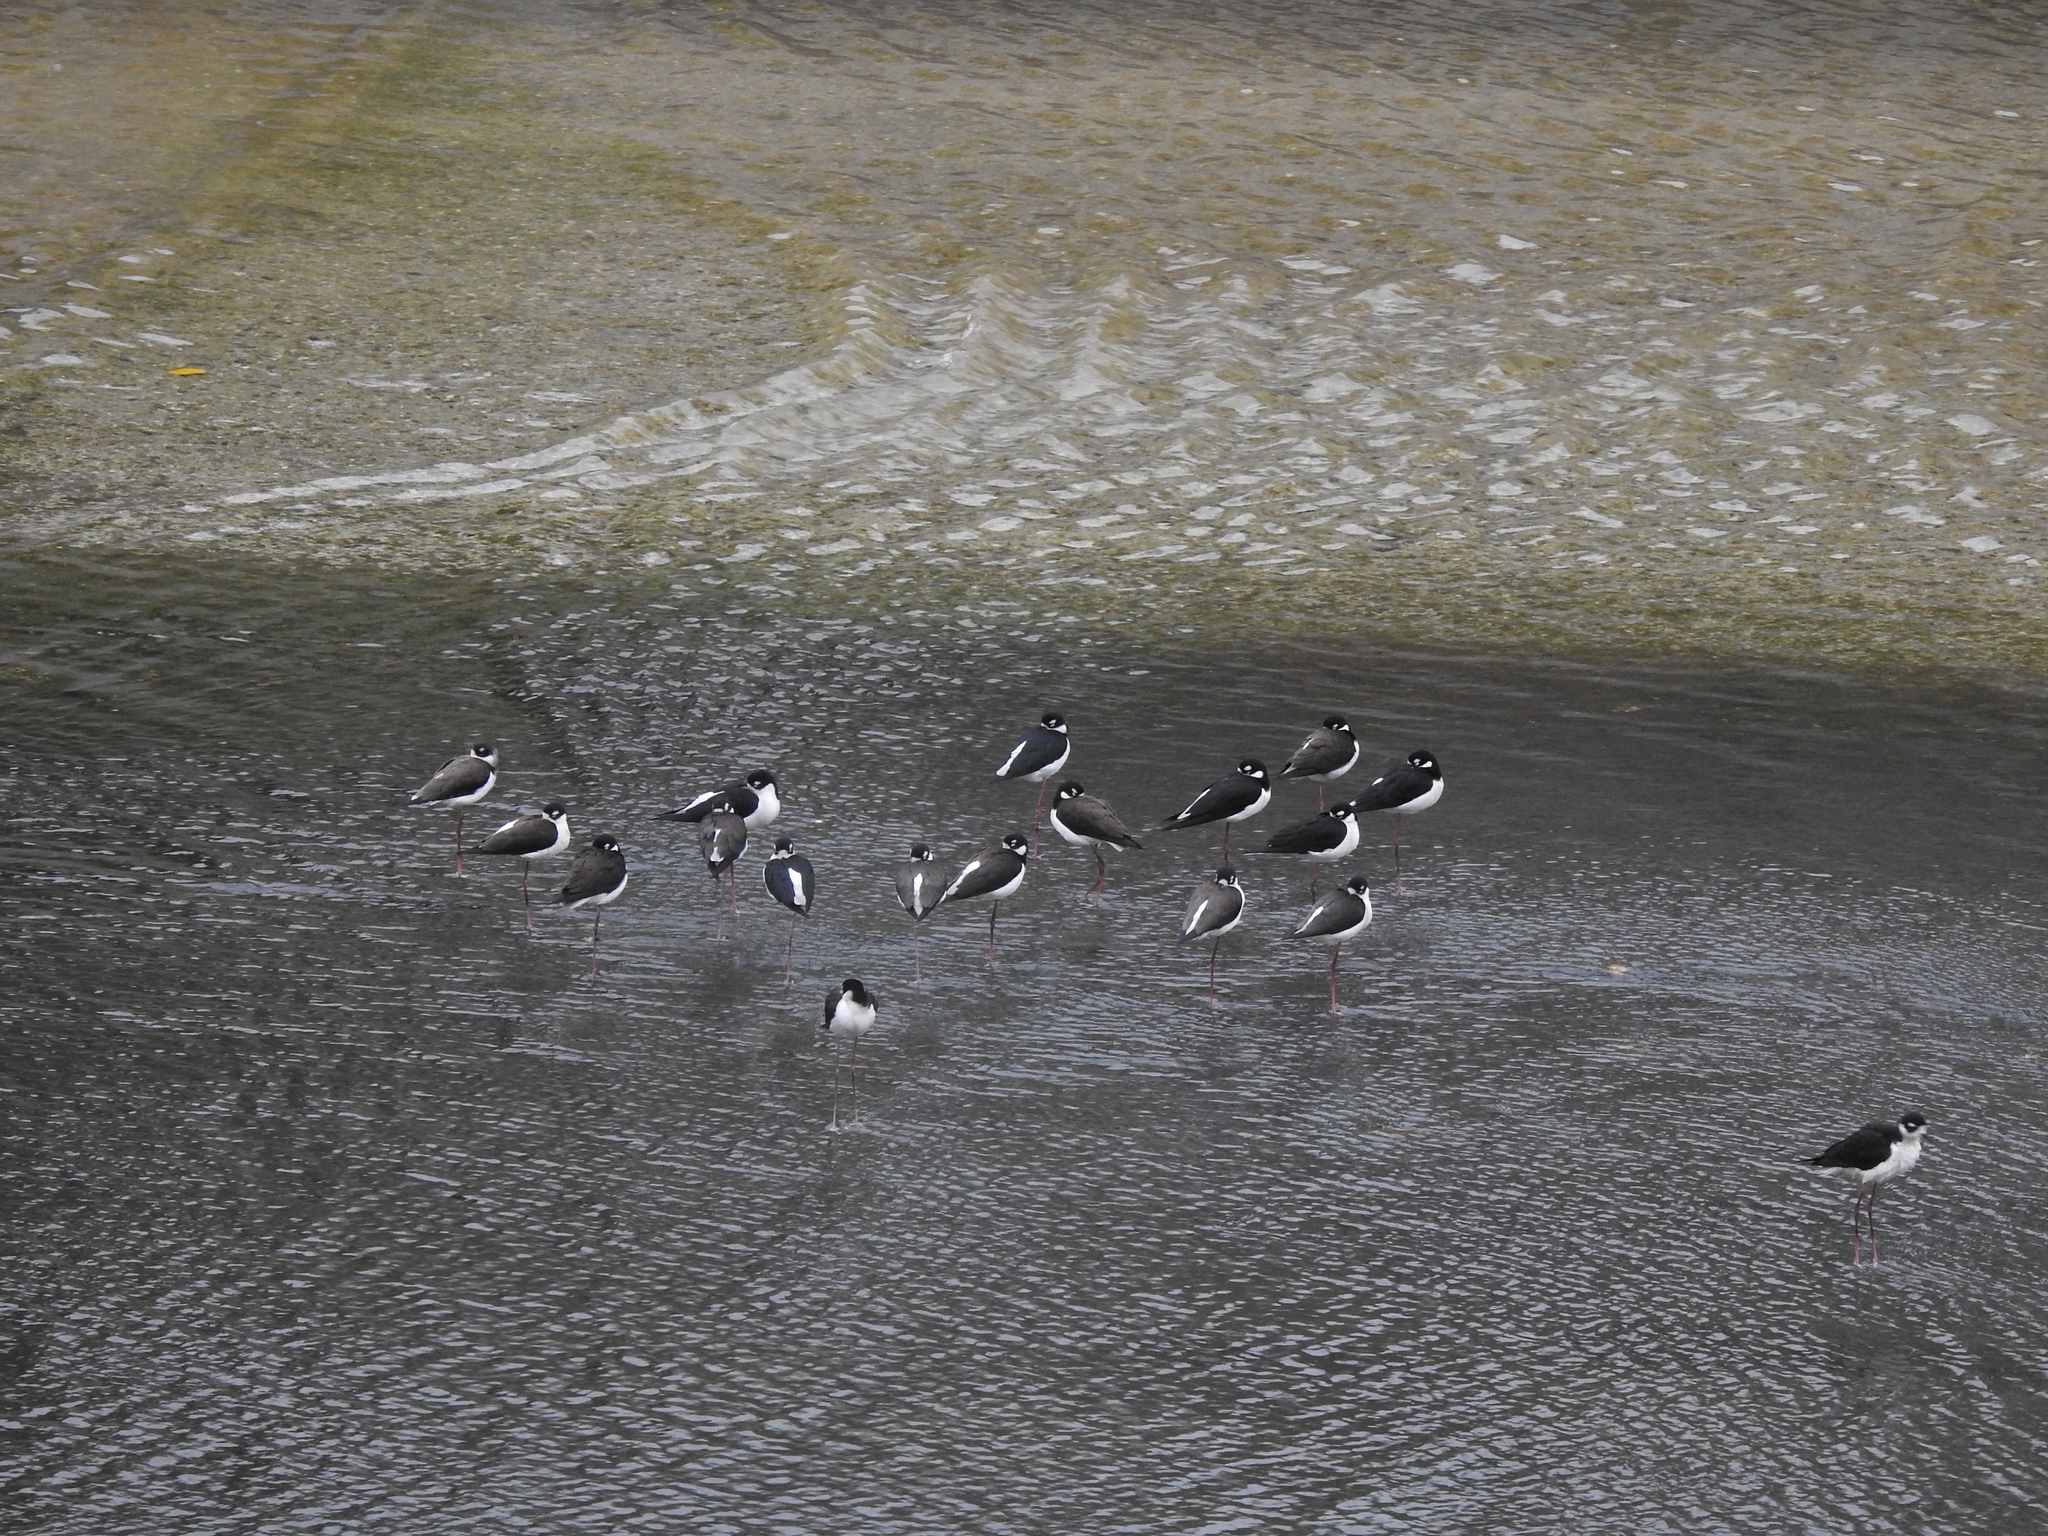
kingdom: Animalia
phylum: Chordata
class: Aves
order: Charadriiformes
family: Recurvirostridae
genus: Himantopus
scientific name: Himantopus mexicanus
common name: Black-necked stilt
